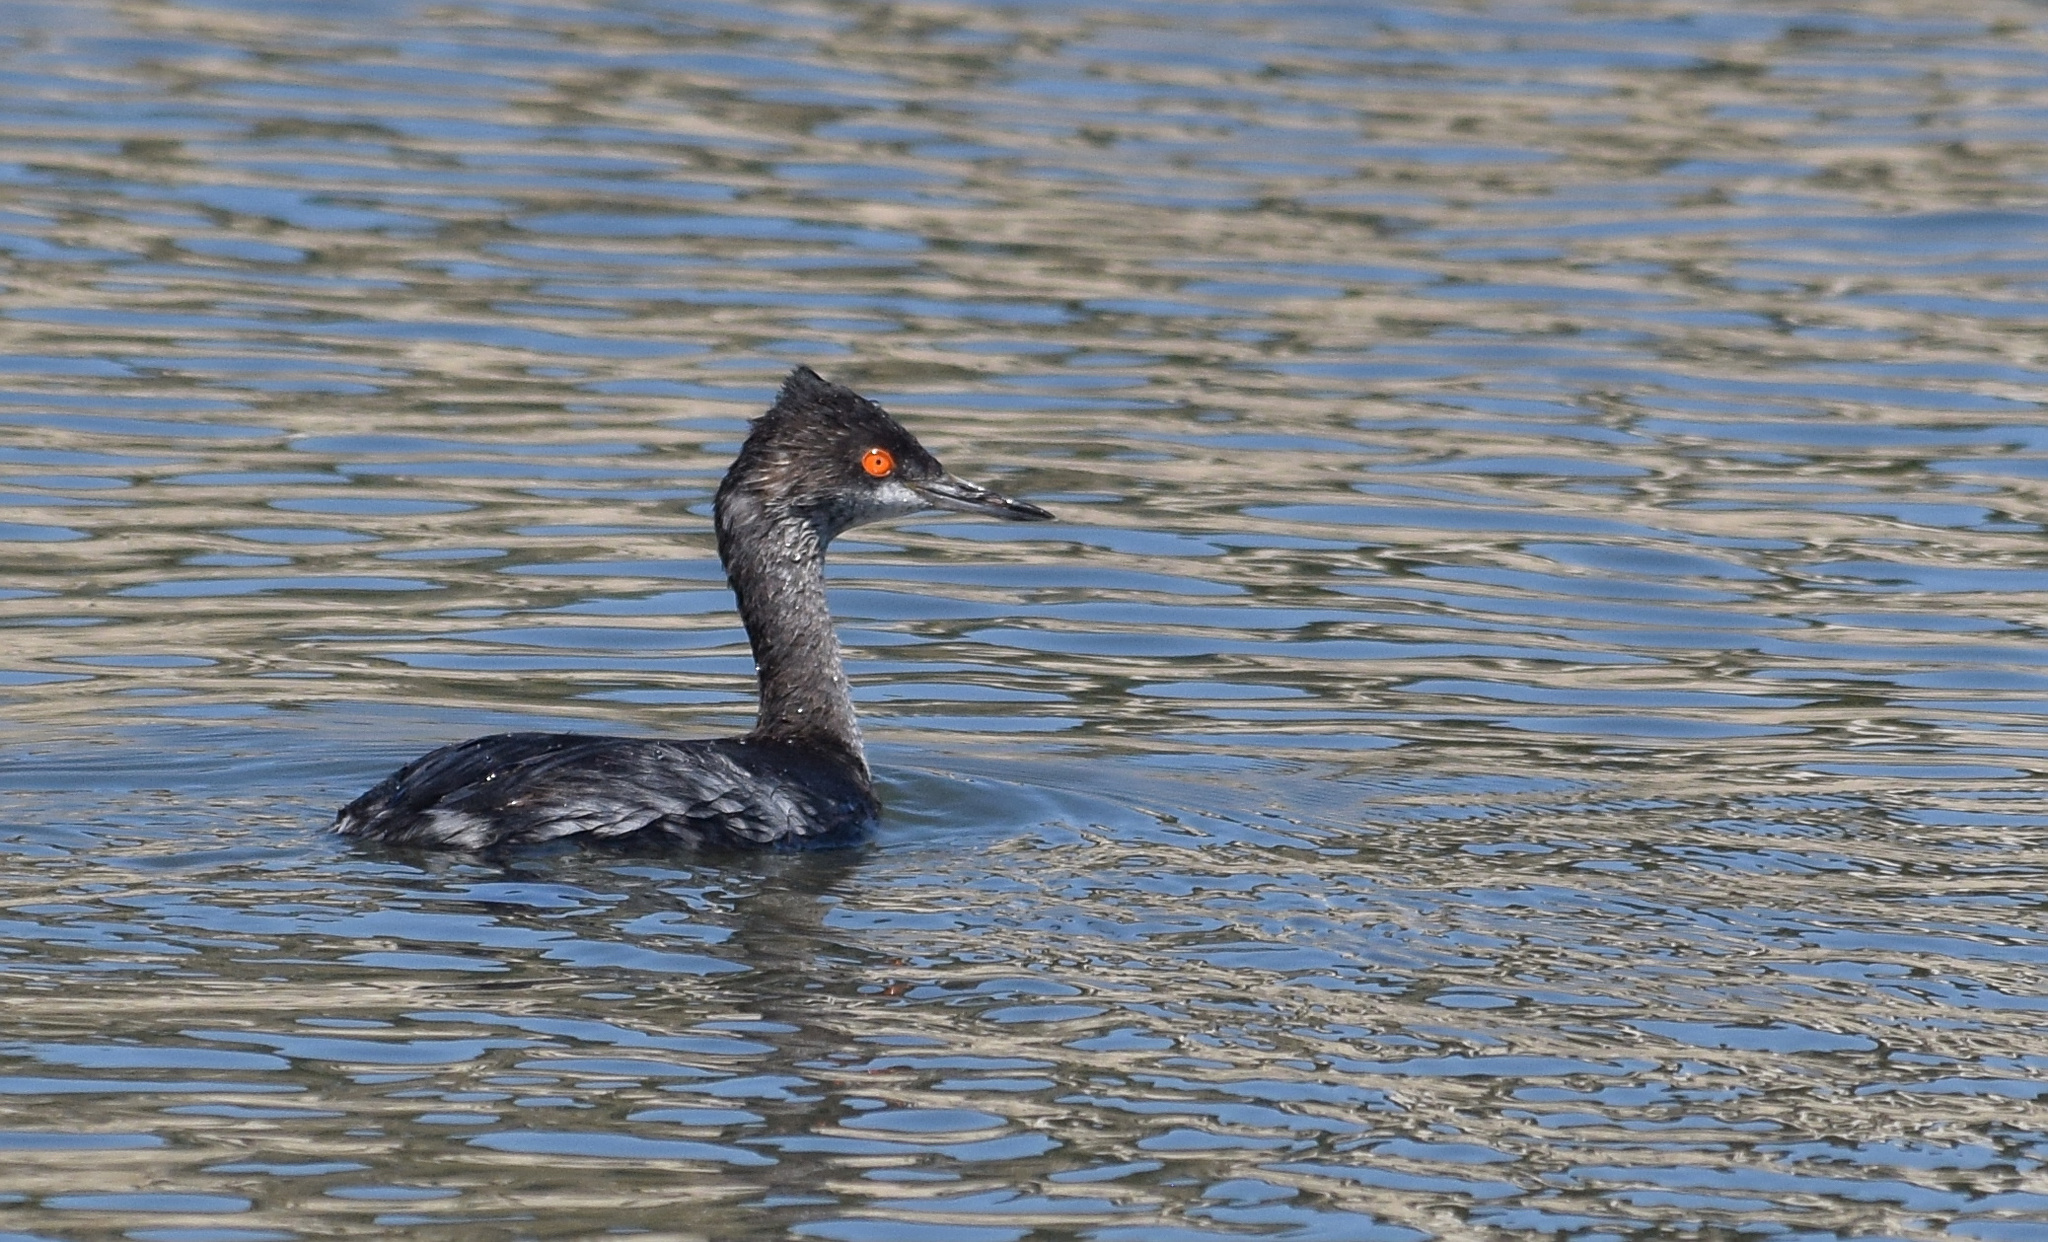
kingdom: Animalia
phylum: Chordata
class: Aves
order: Podicipediformes
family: Podicipedidae
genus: Podiceps
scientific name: Podiceps nigricollis
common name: Black-necked grebe
